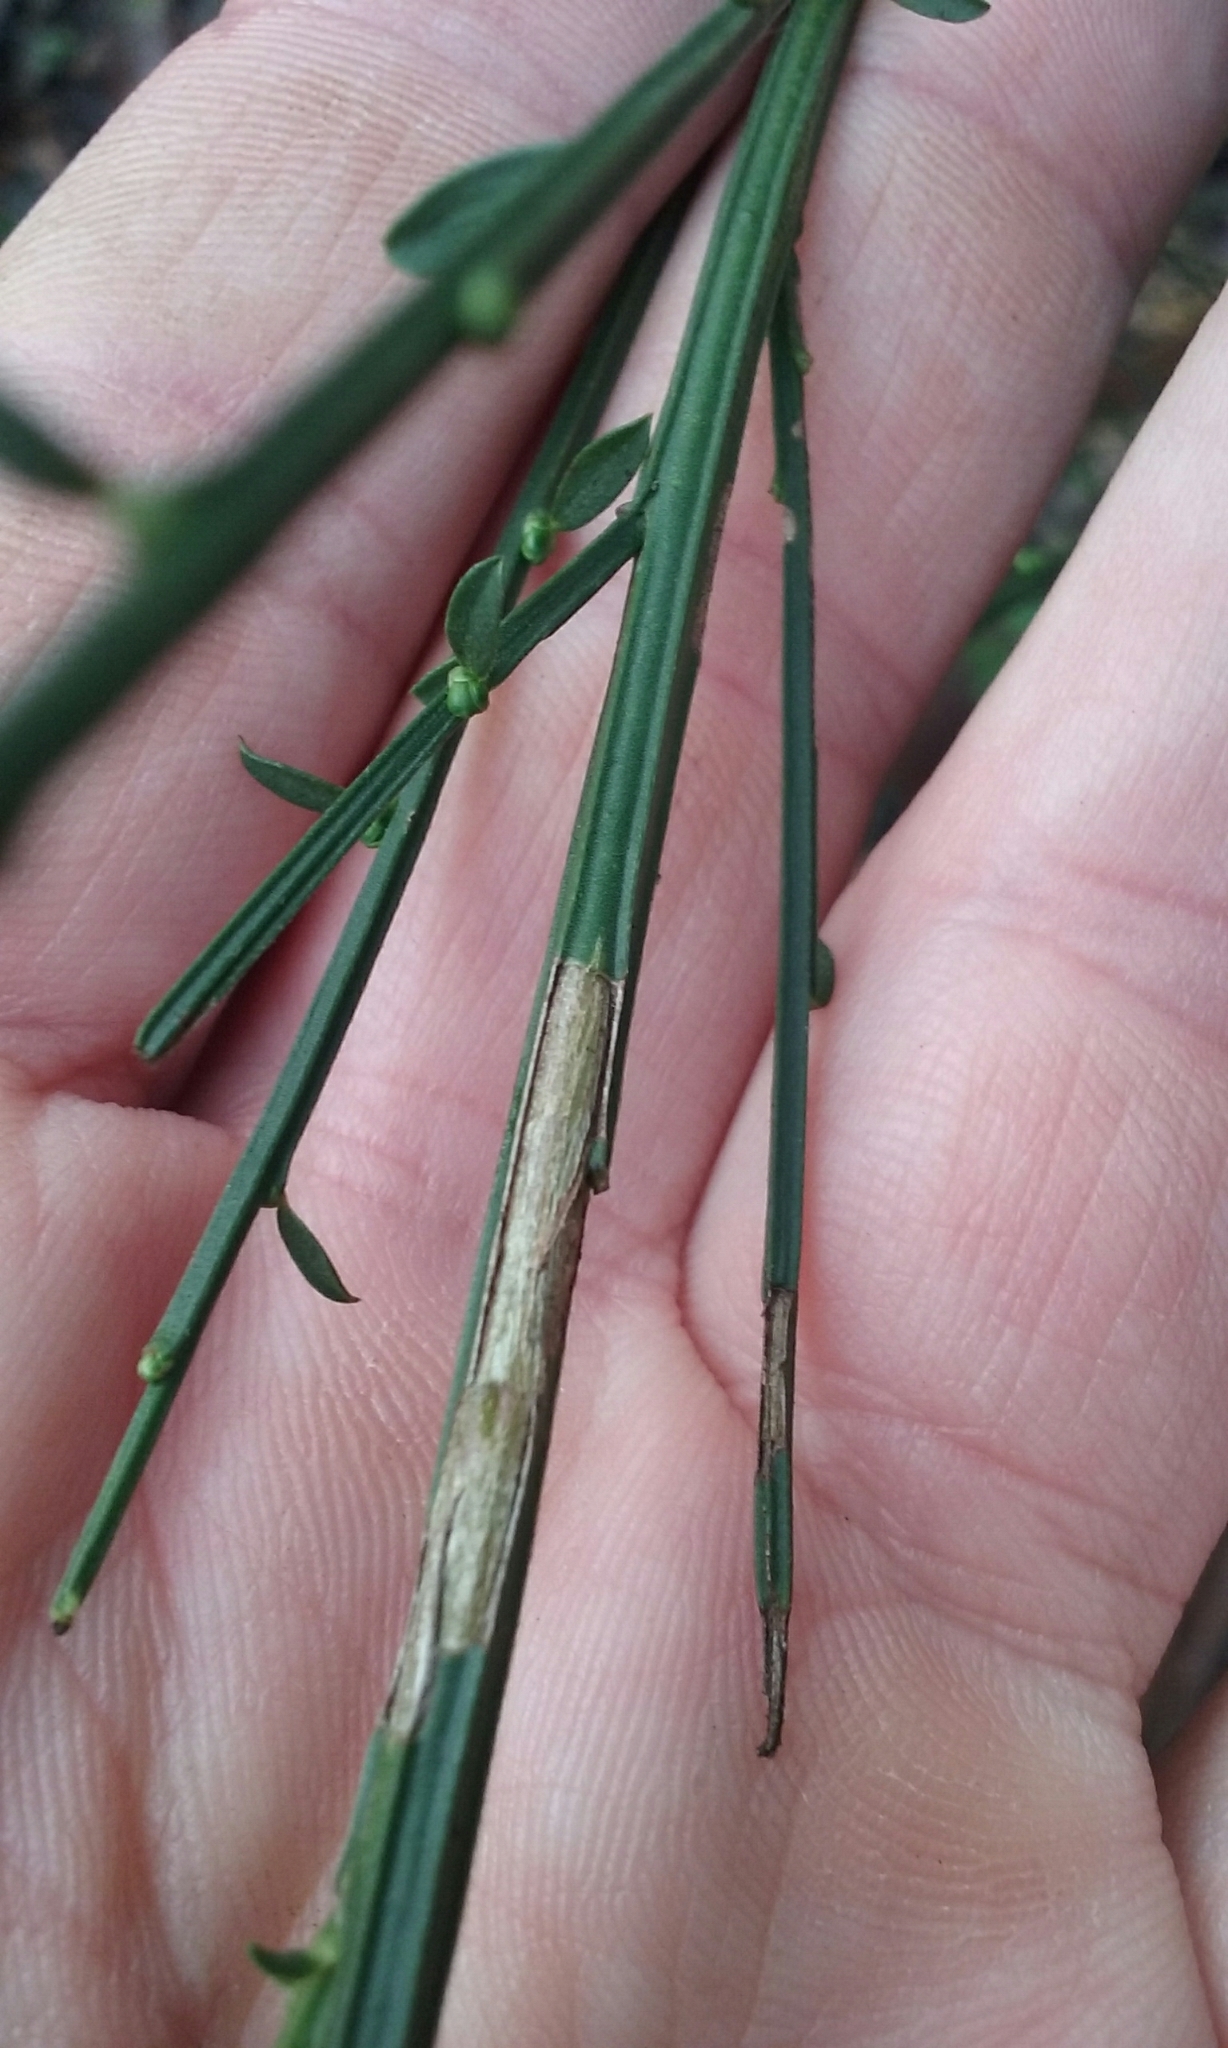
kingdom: Plantae
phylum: Tracheophyta
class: Magnoliopsida
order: Fabales
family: Fabaceae
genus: Cytisus
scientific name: Cytisus scoparius
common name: Scotch broom
